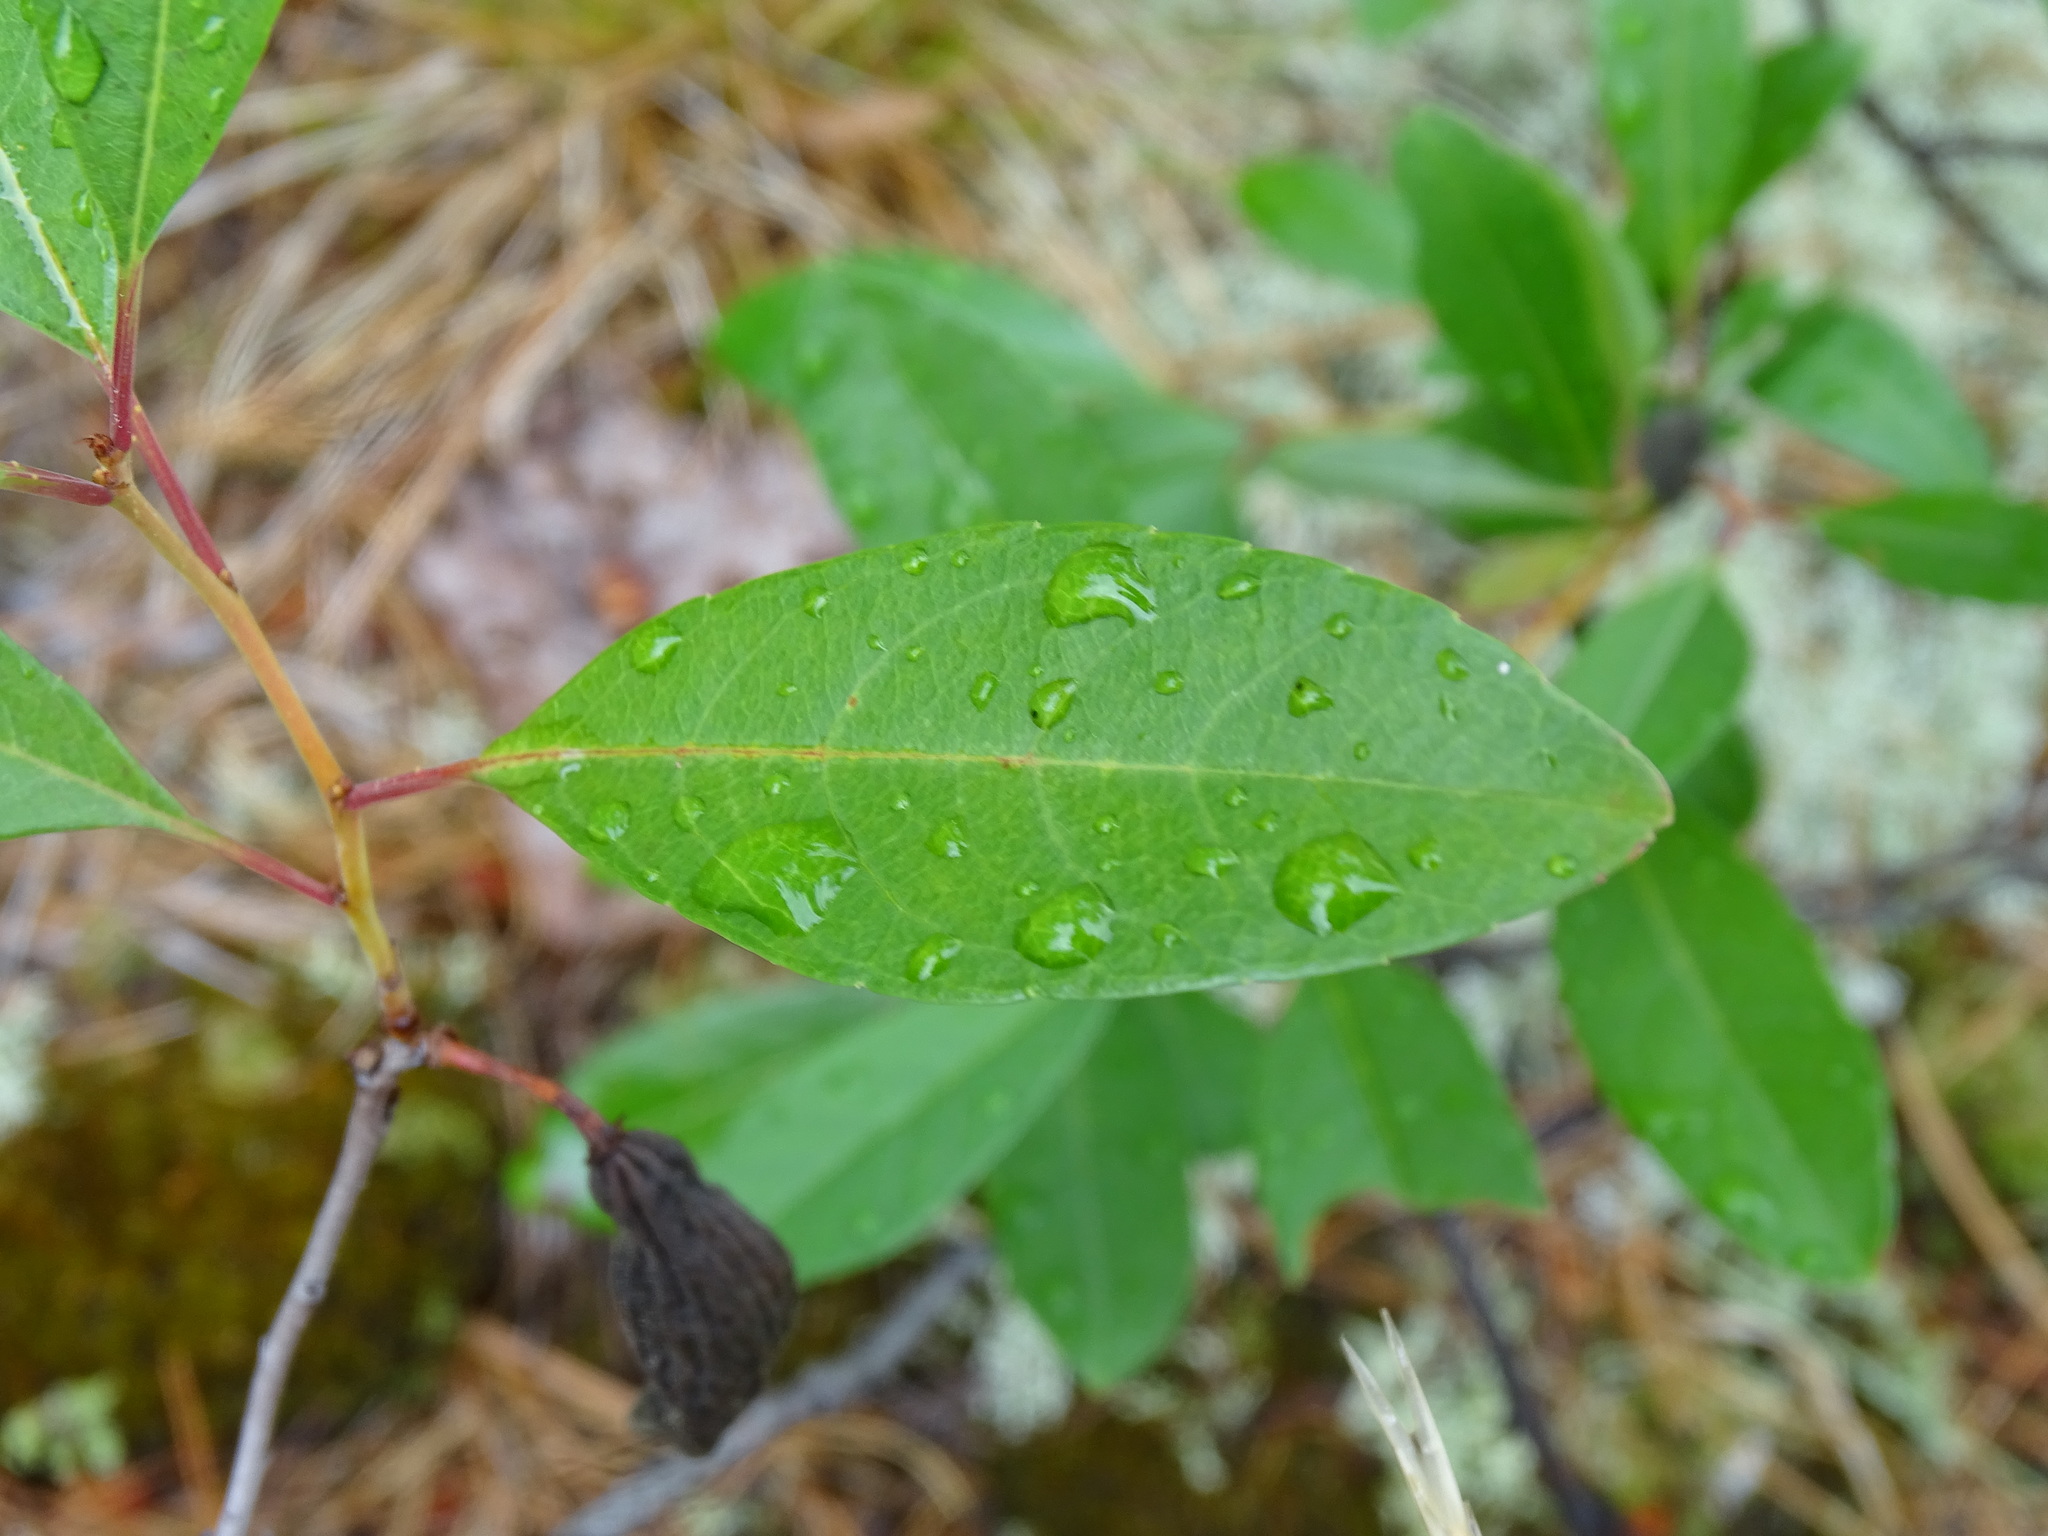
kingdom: Plantae
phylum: Tracheophyta
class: Magnoliopsida
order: Rosales
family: Rosaceae
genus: Prunus
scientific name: Prunus pumila
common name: Dwarf cherry
